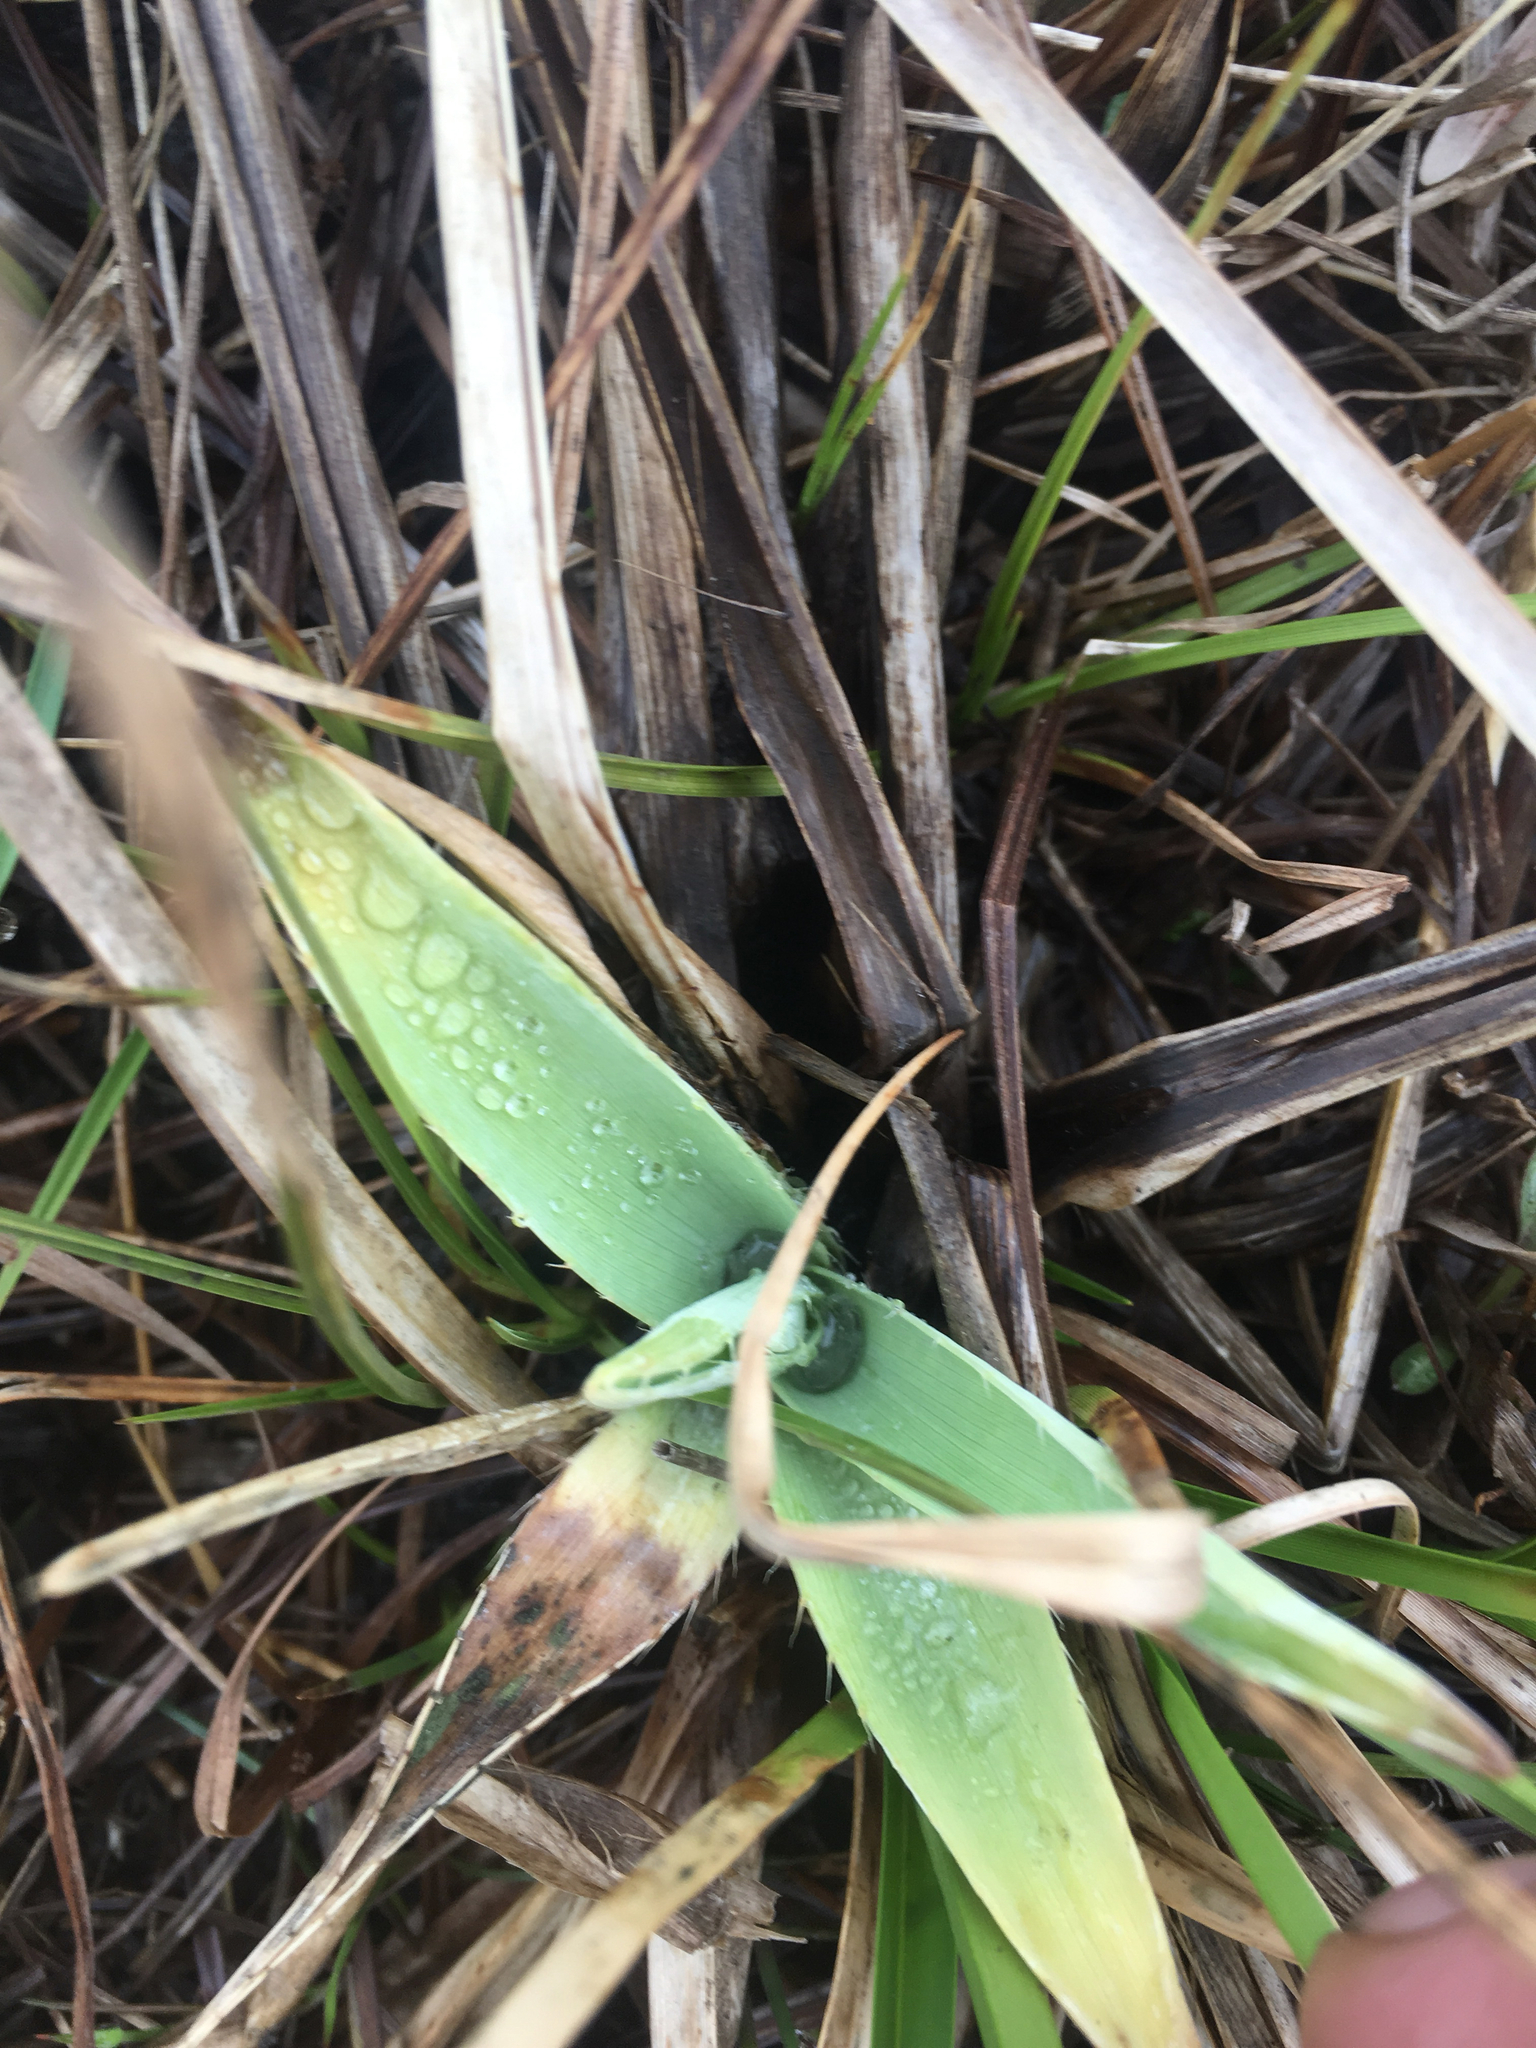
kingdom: Plantae
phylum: Tracheophyta
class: Magnoliopsida
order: Apiales
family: Apiaceae
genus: Eryngium
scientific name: Eryngium yuccifolium
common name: Button eryngo
